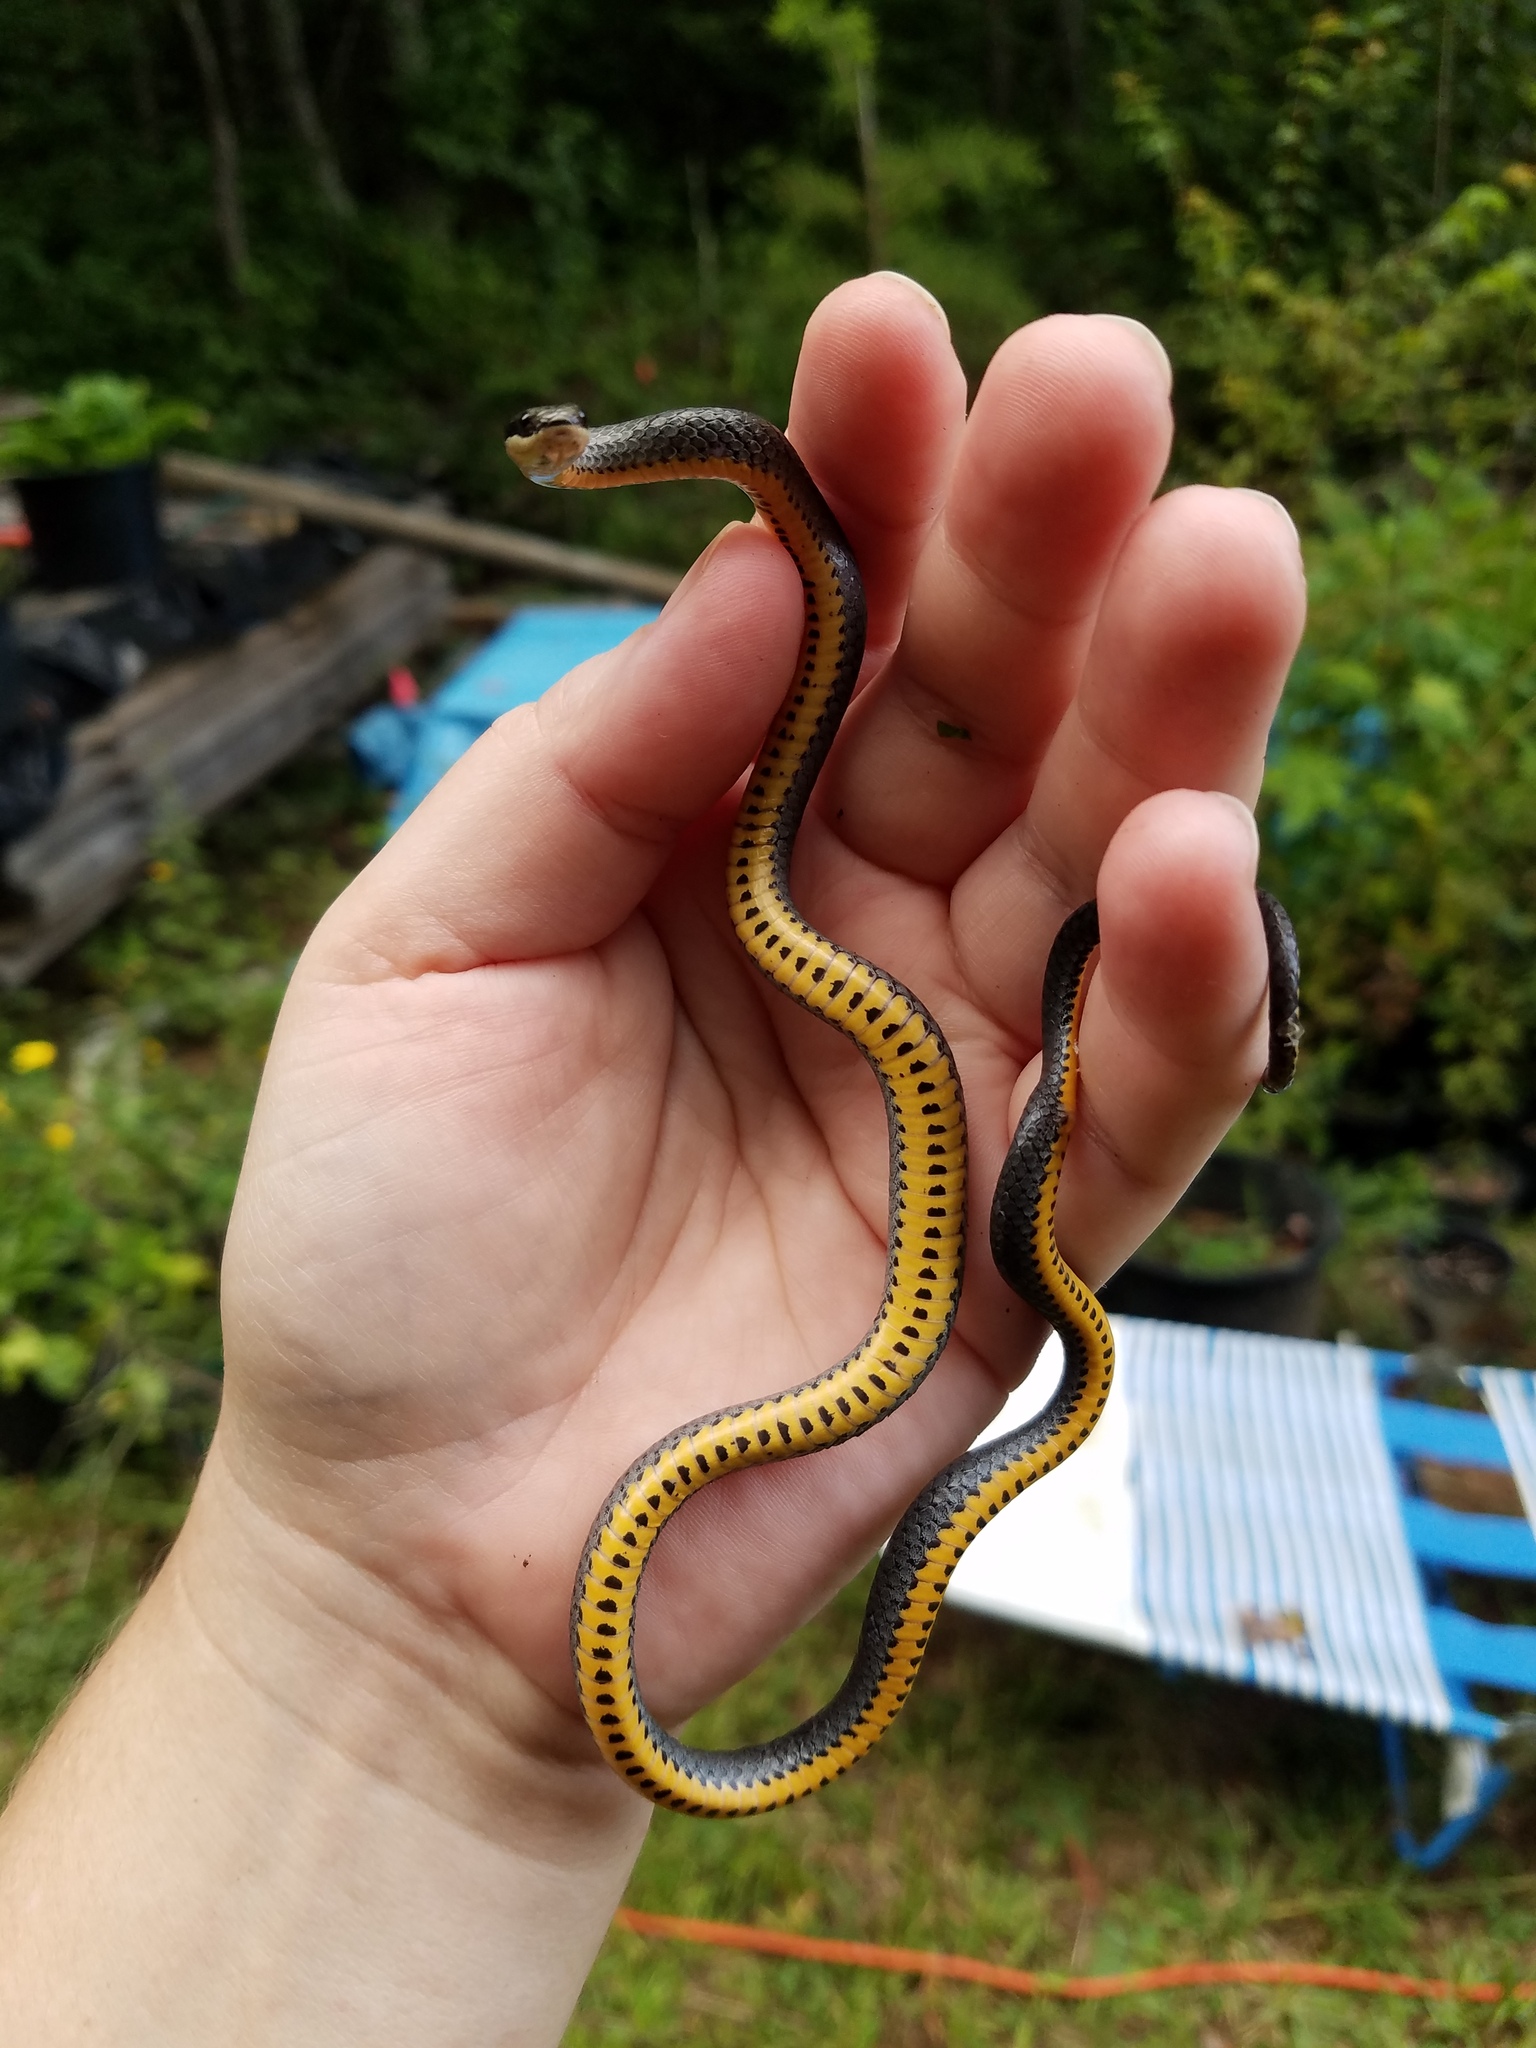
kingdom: Animalia
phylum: Chordata
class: Squamata
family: Colubridae
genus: Diadophis
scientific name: Diadophis punctatus
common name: Ringneck snake
